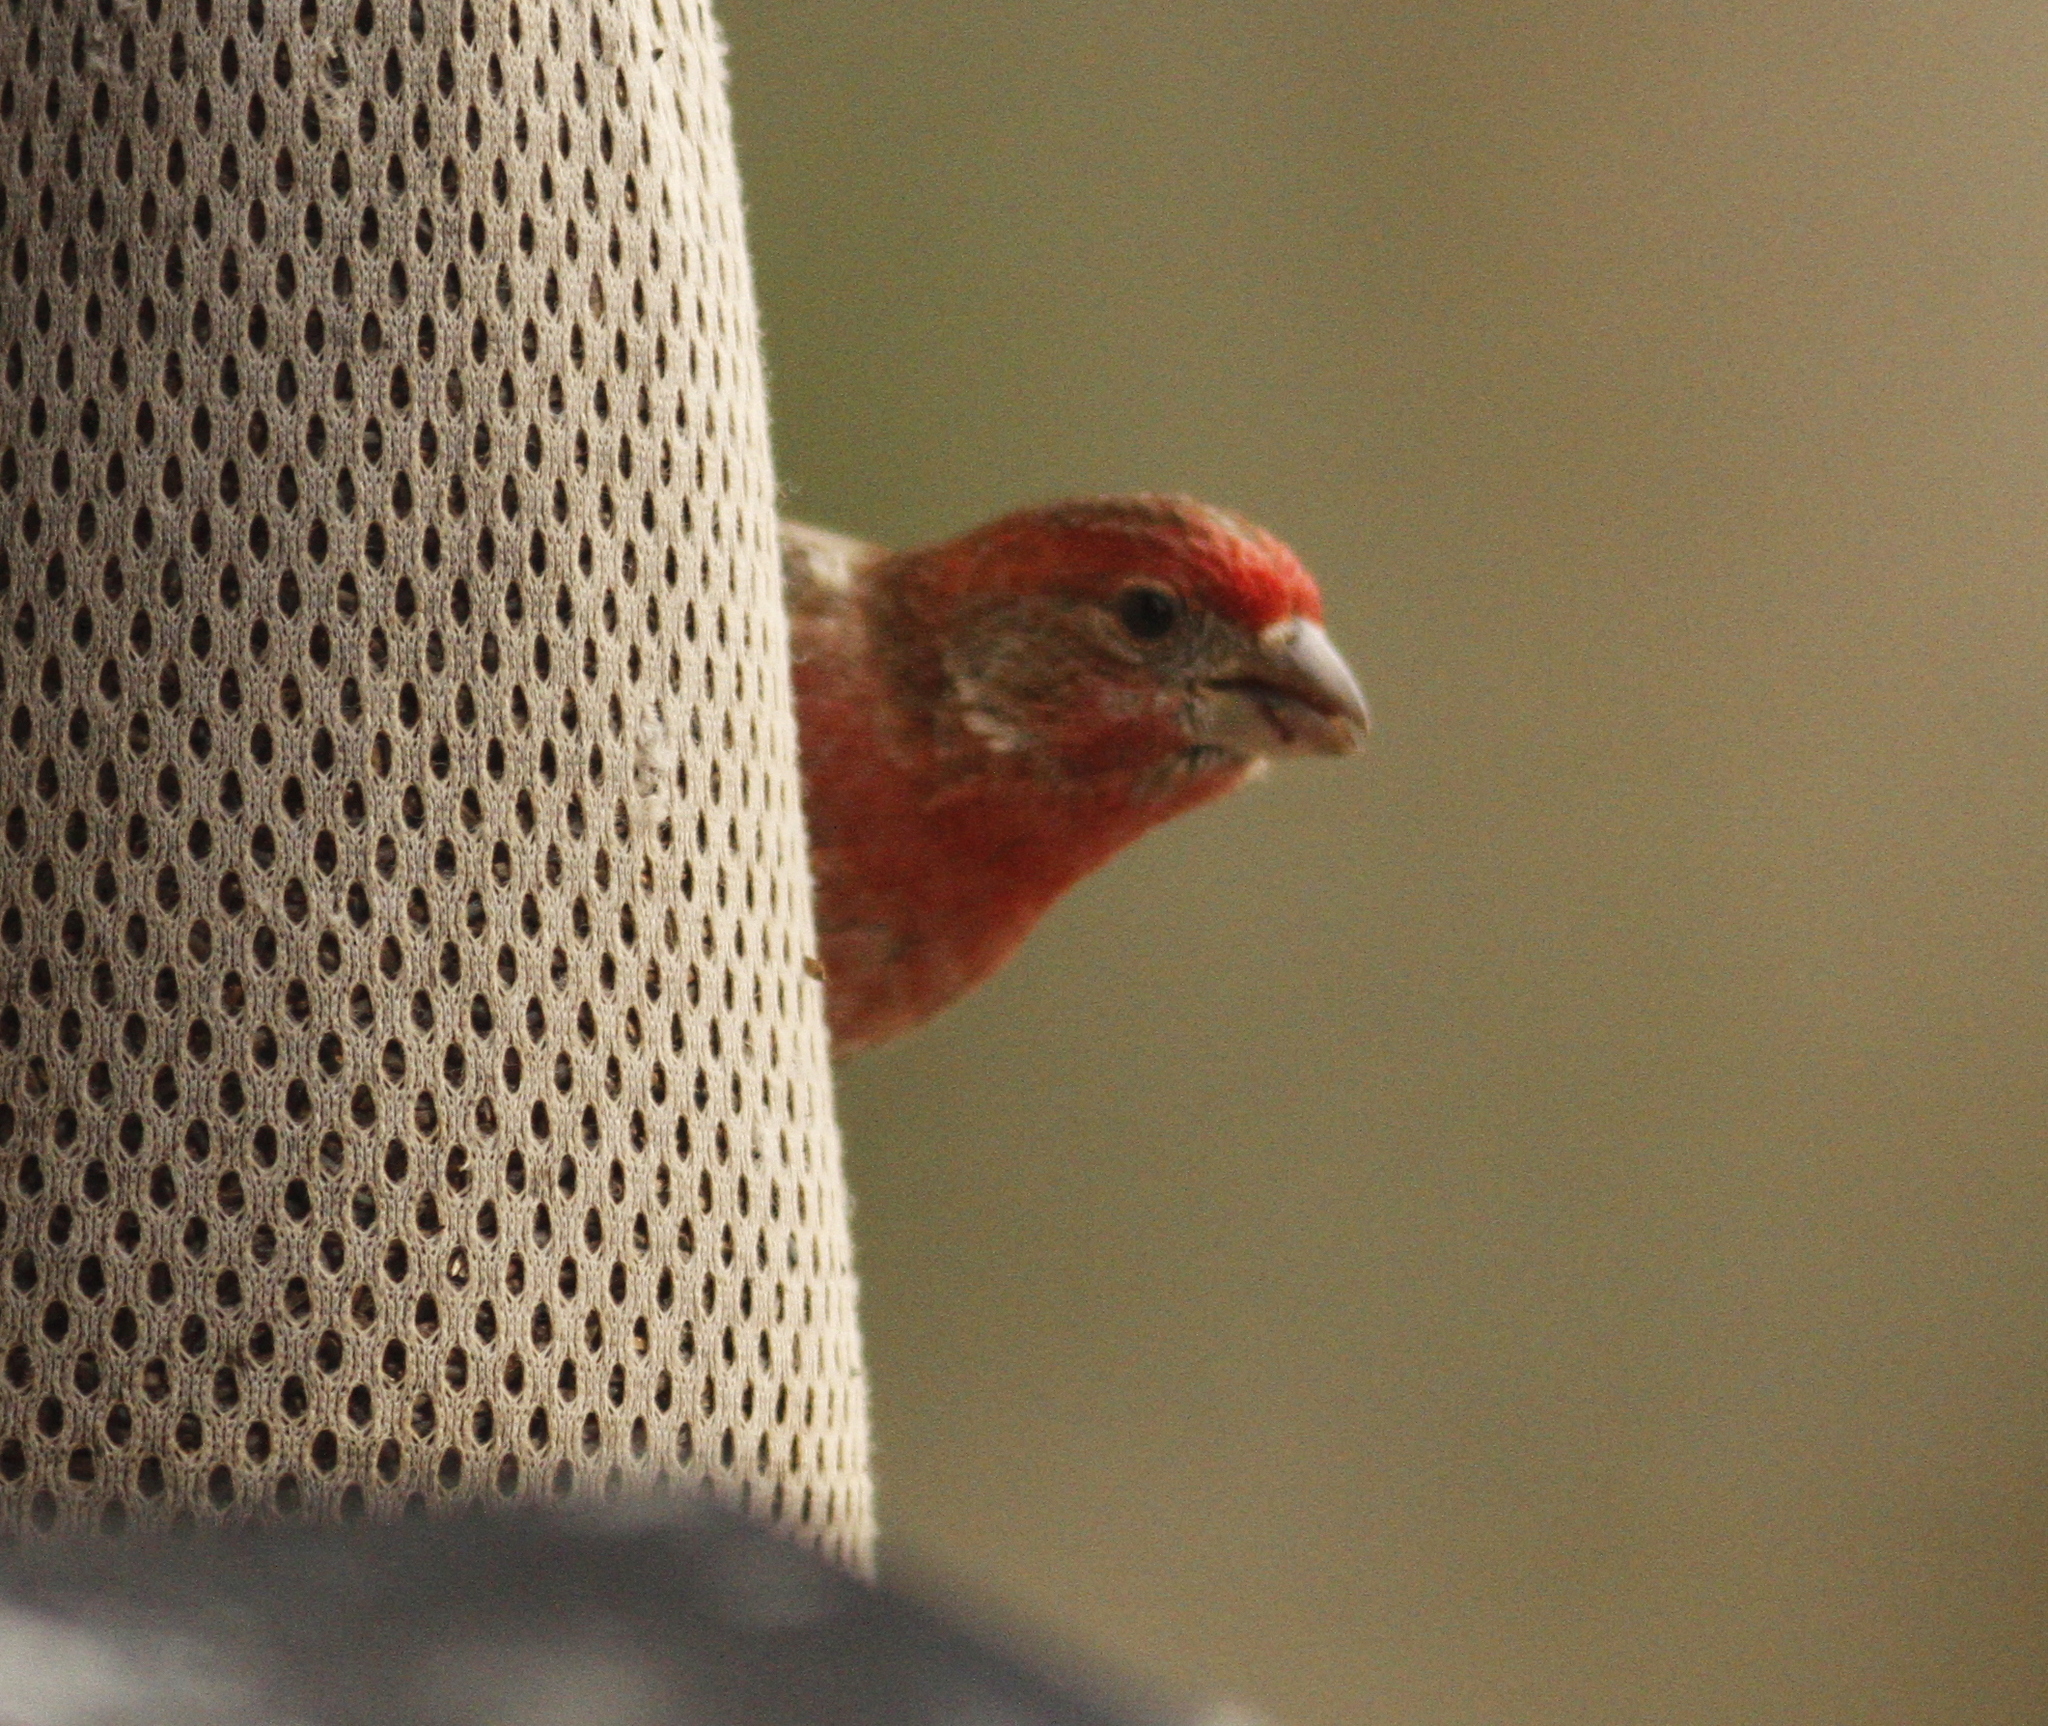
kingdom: Animalia
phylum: Chordata
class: Aves
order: Passeriformes
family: Fringillidae
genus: Haemorhous
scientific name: Haemorhous mexicanus
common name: House finch
